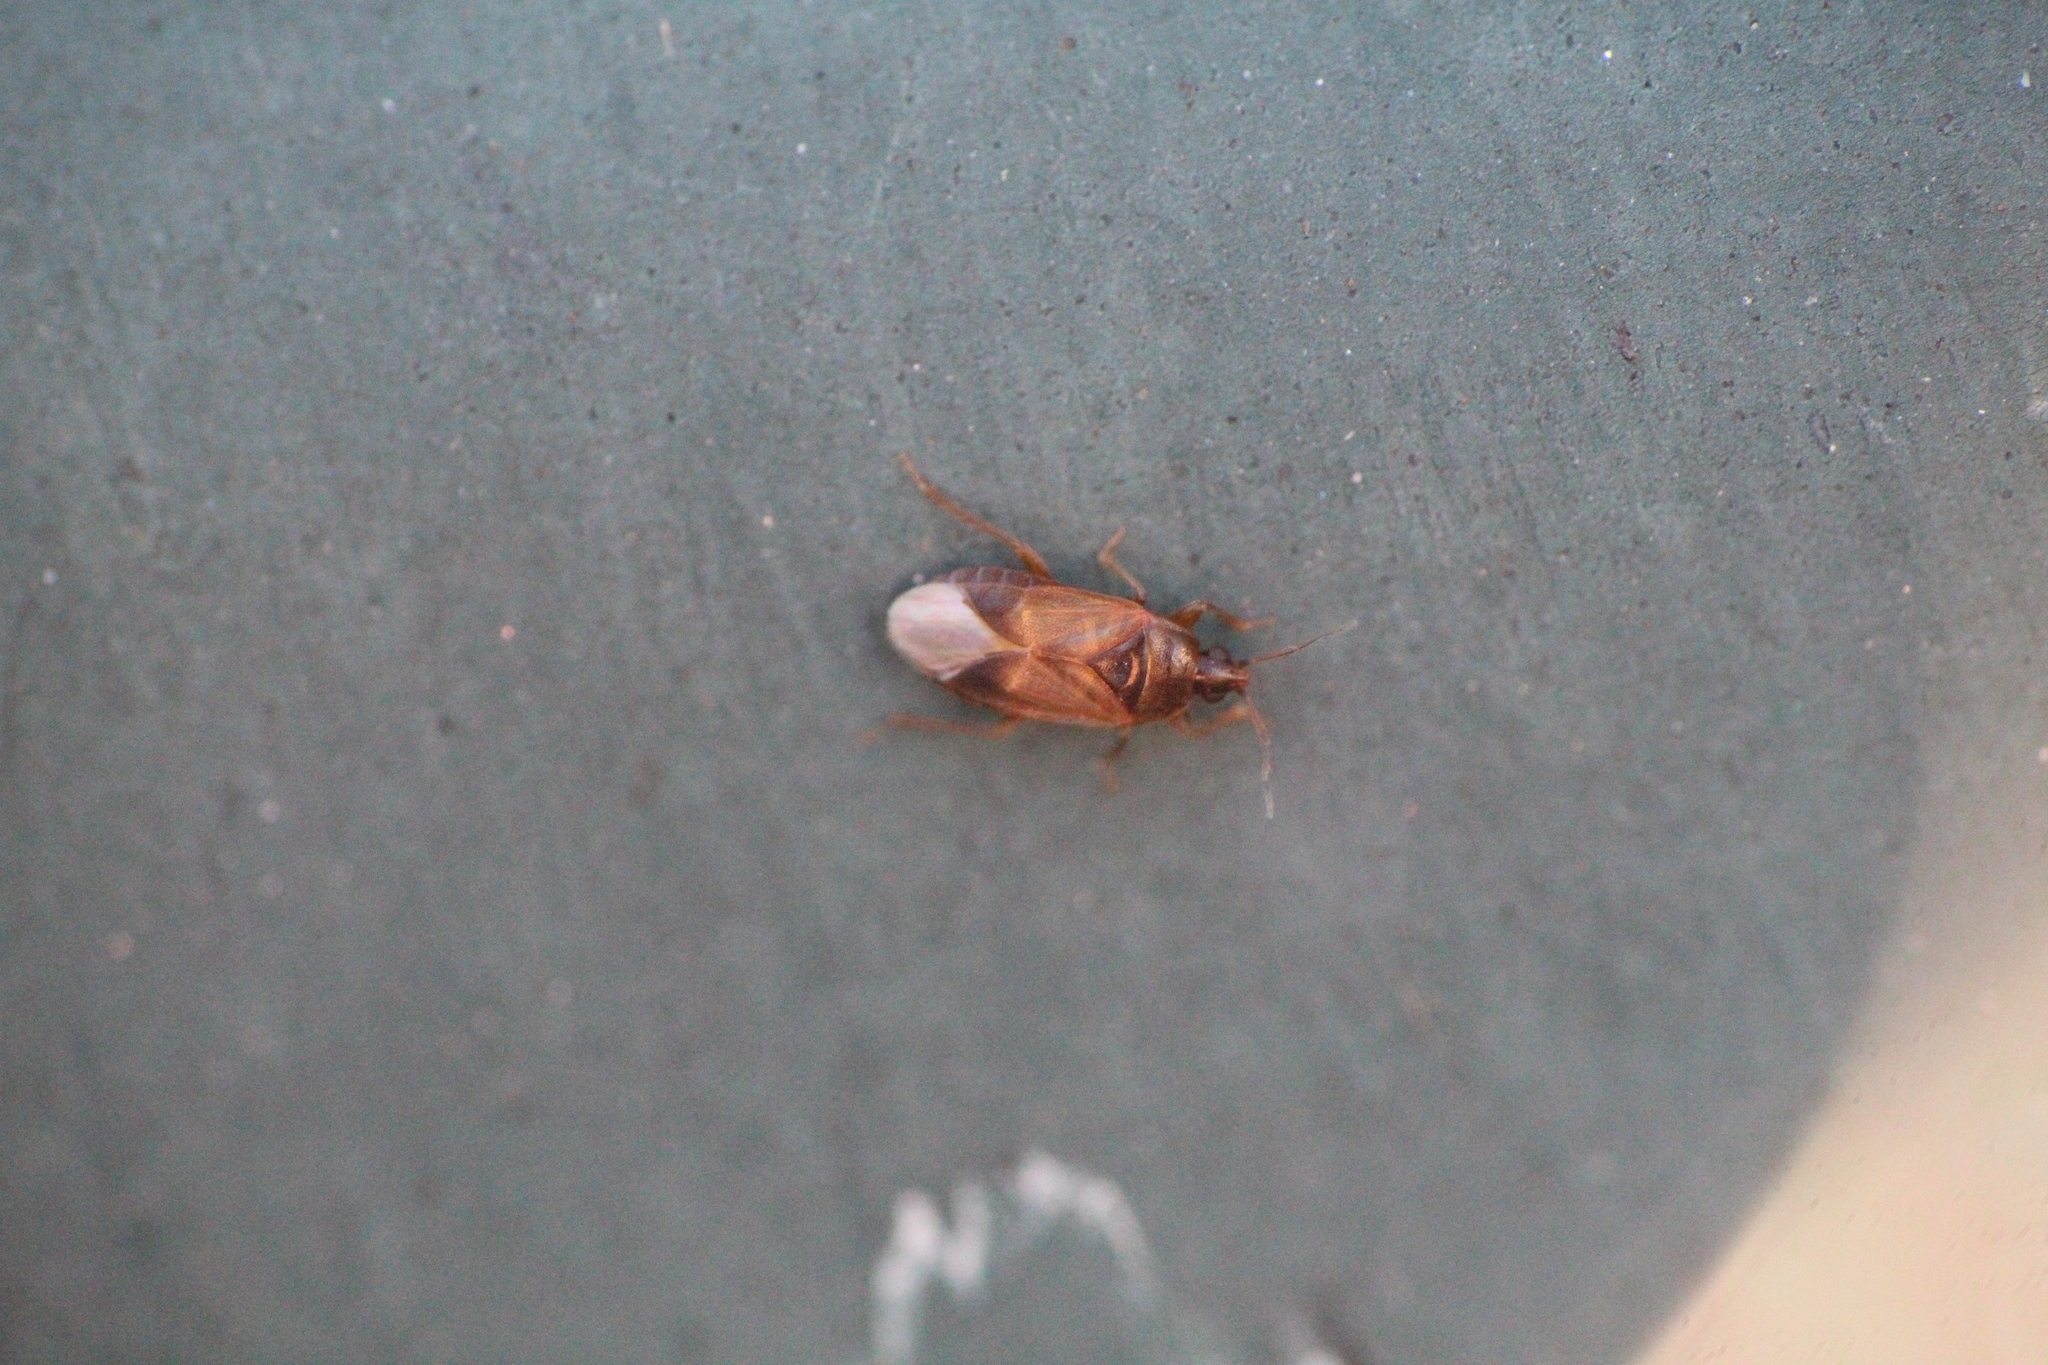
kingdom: Animalia
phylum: Arthropoda
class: Insecta
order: Hemiptera
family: Anthocoridae
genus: Lyctocoris
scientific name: Lyctocoris campestris
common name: Minute pirate bug
